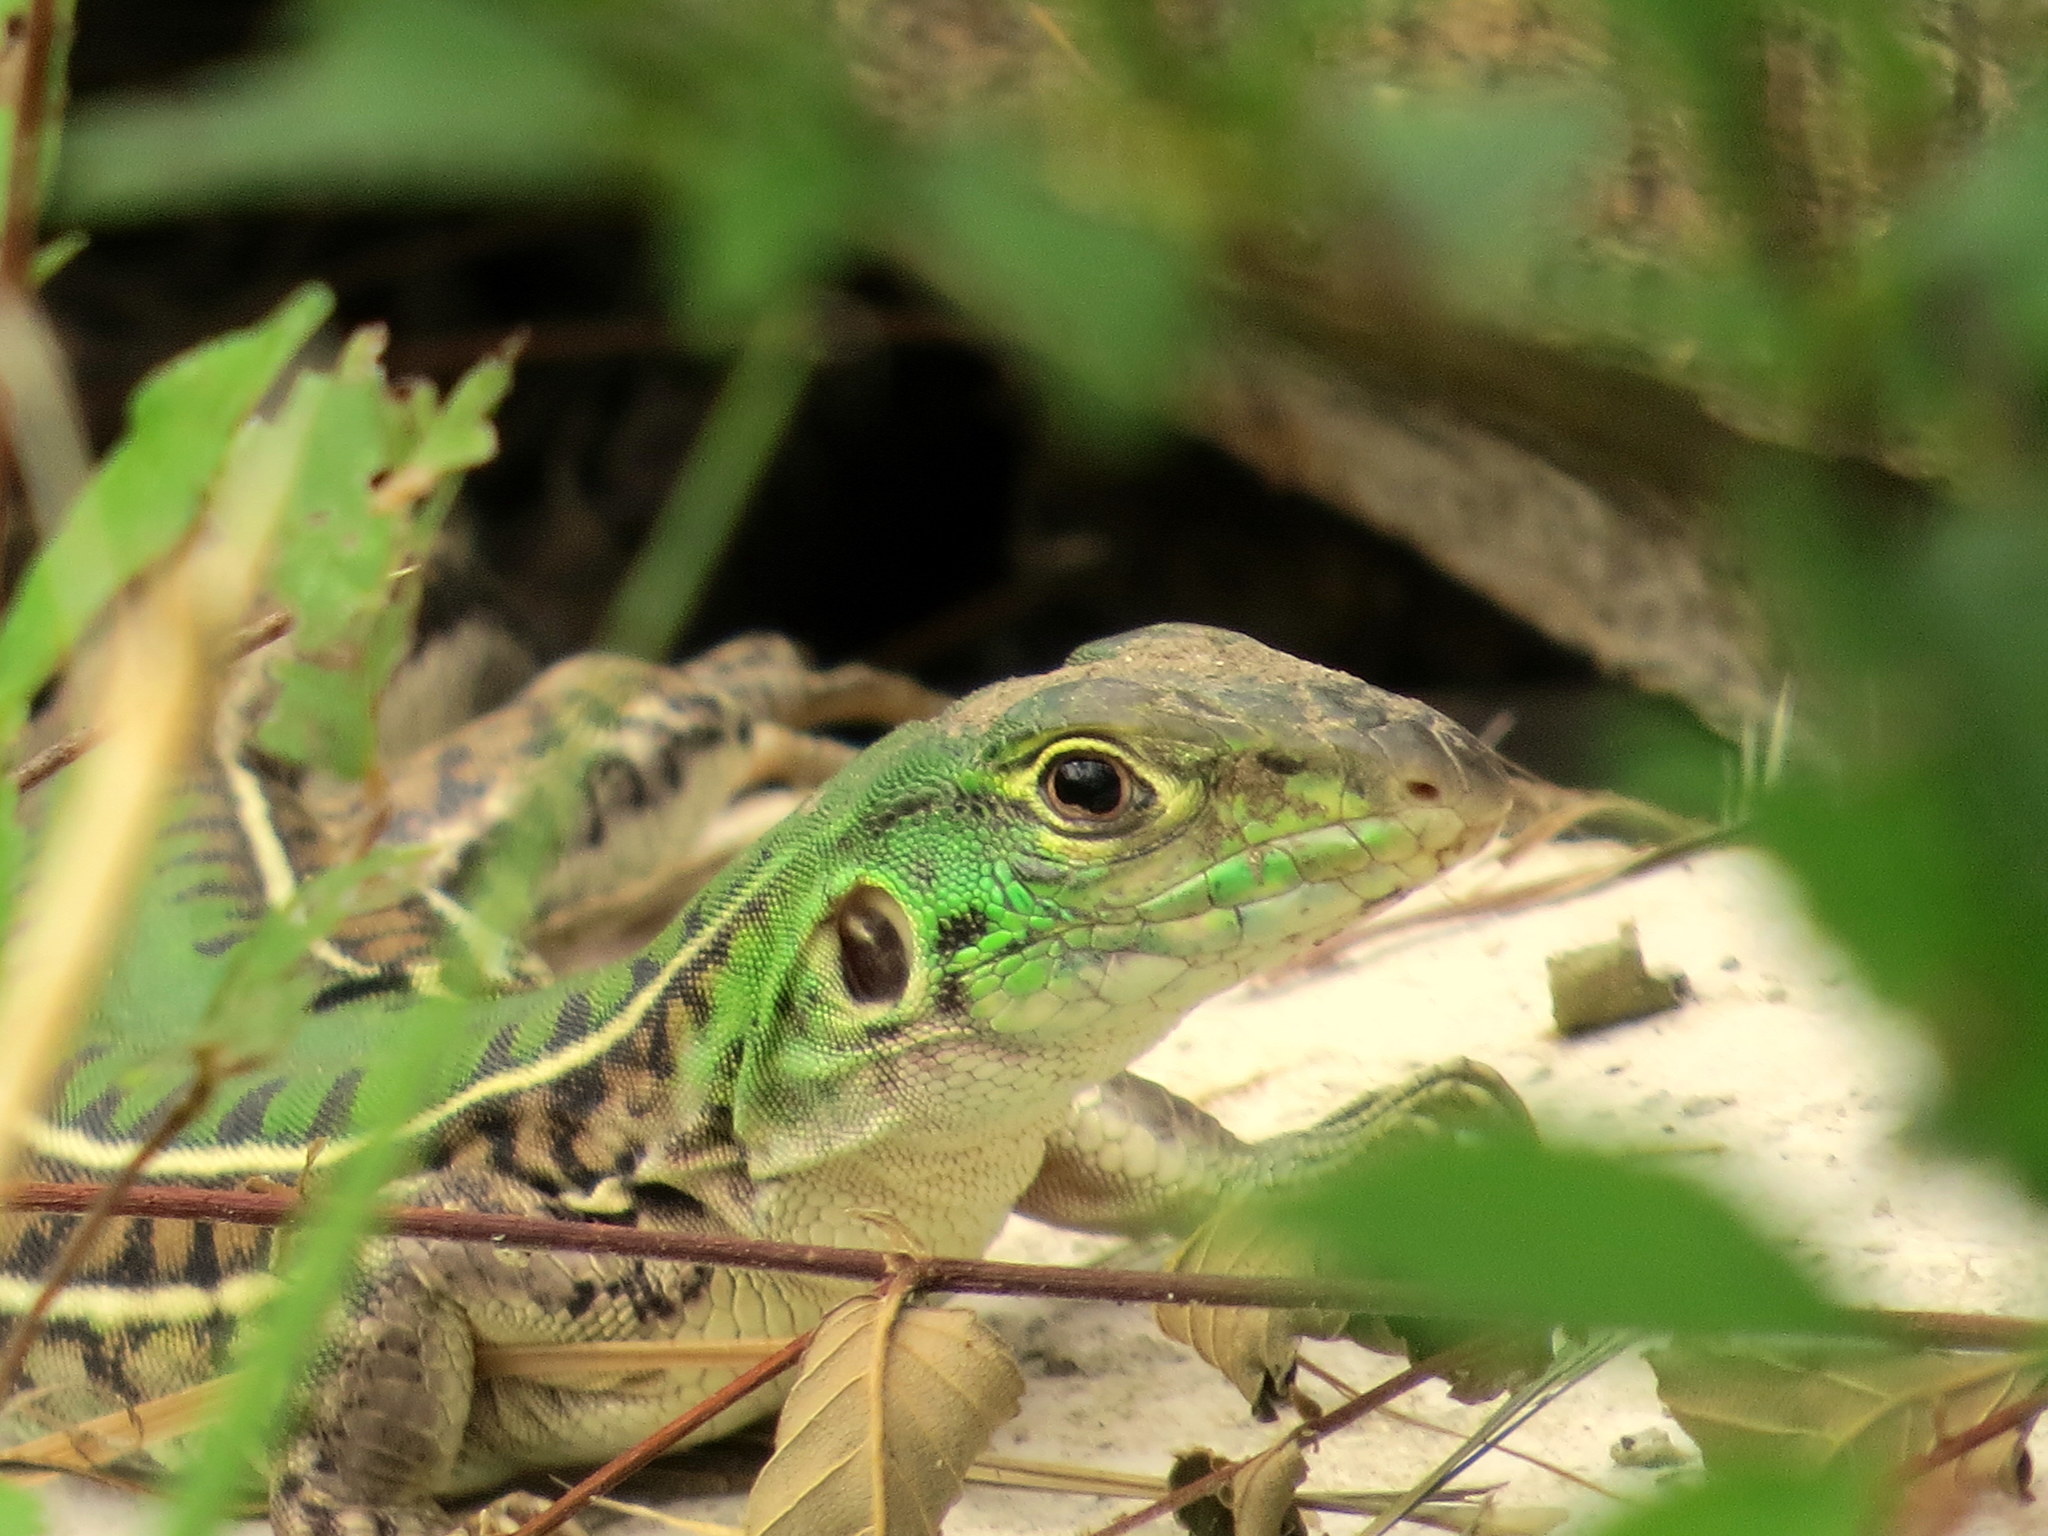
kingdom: Animalia
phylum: Chordata
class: Squamata
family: Teiidae
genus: Teius
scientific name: Teius suquiensis
